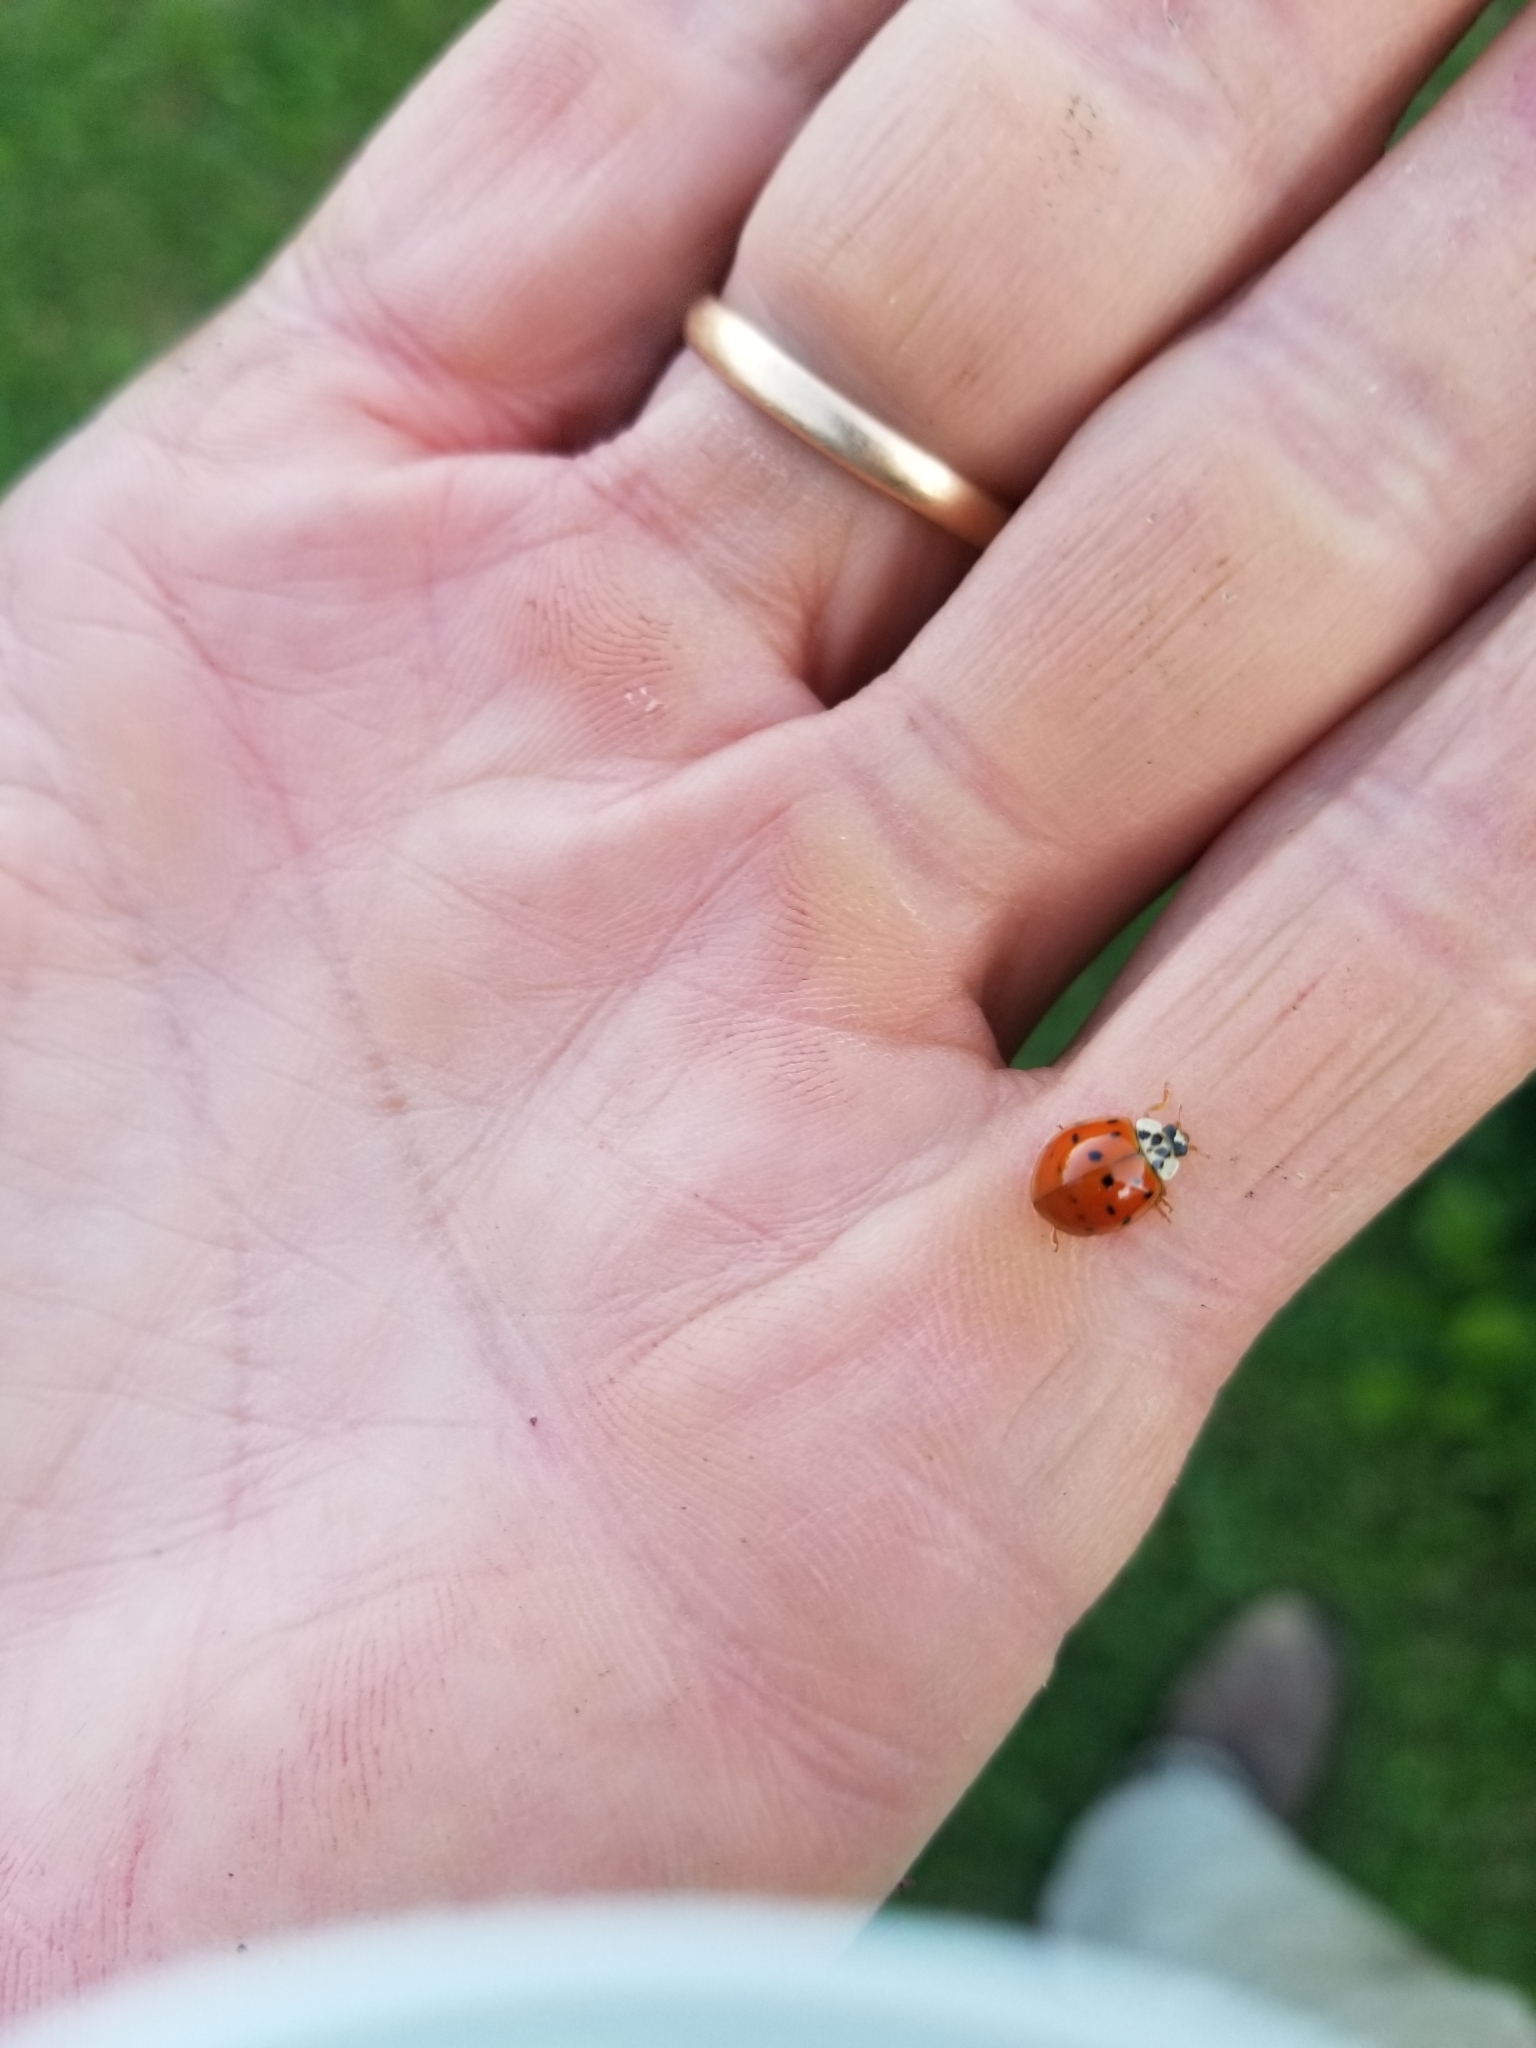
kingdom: Animalia
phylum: Arthropoda
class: Insecta
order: Coleoptera
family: Coccinellidae
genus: Harmonia
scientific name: Harmonia axyridis
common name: Harlequin ladybird
